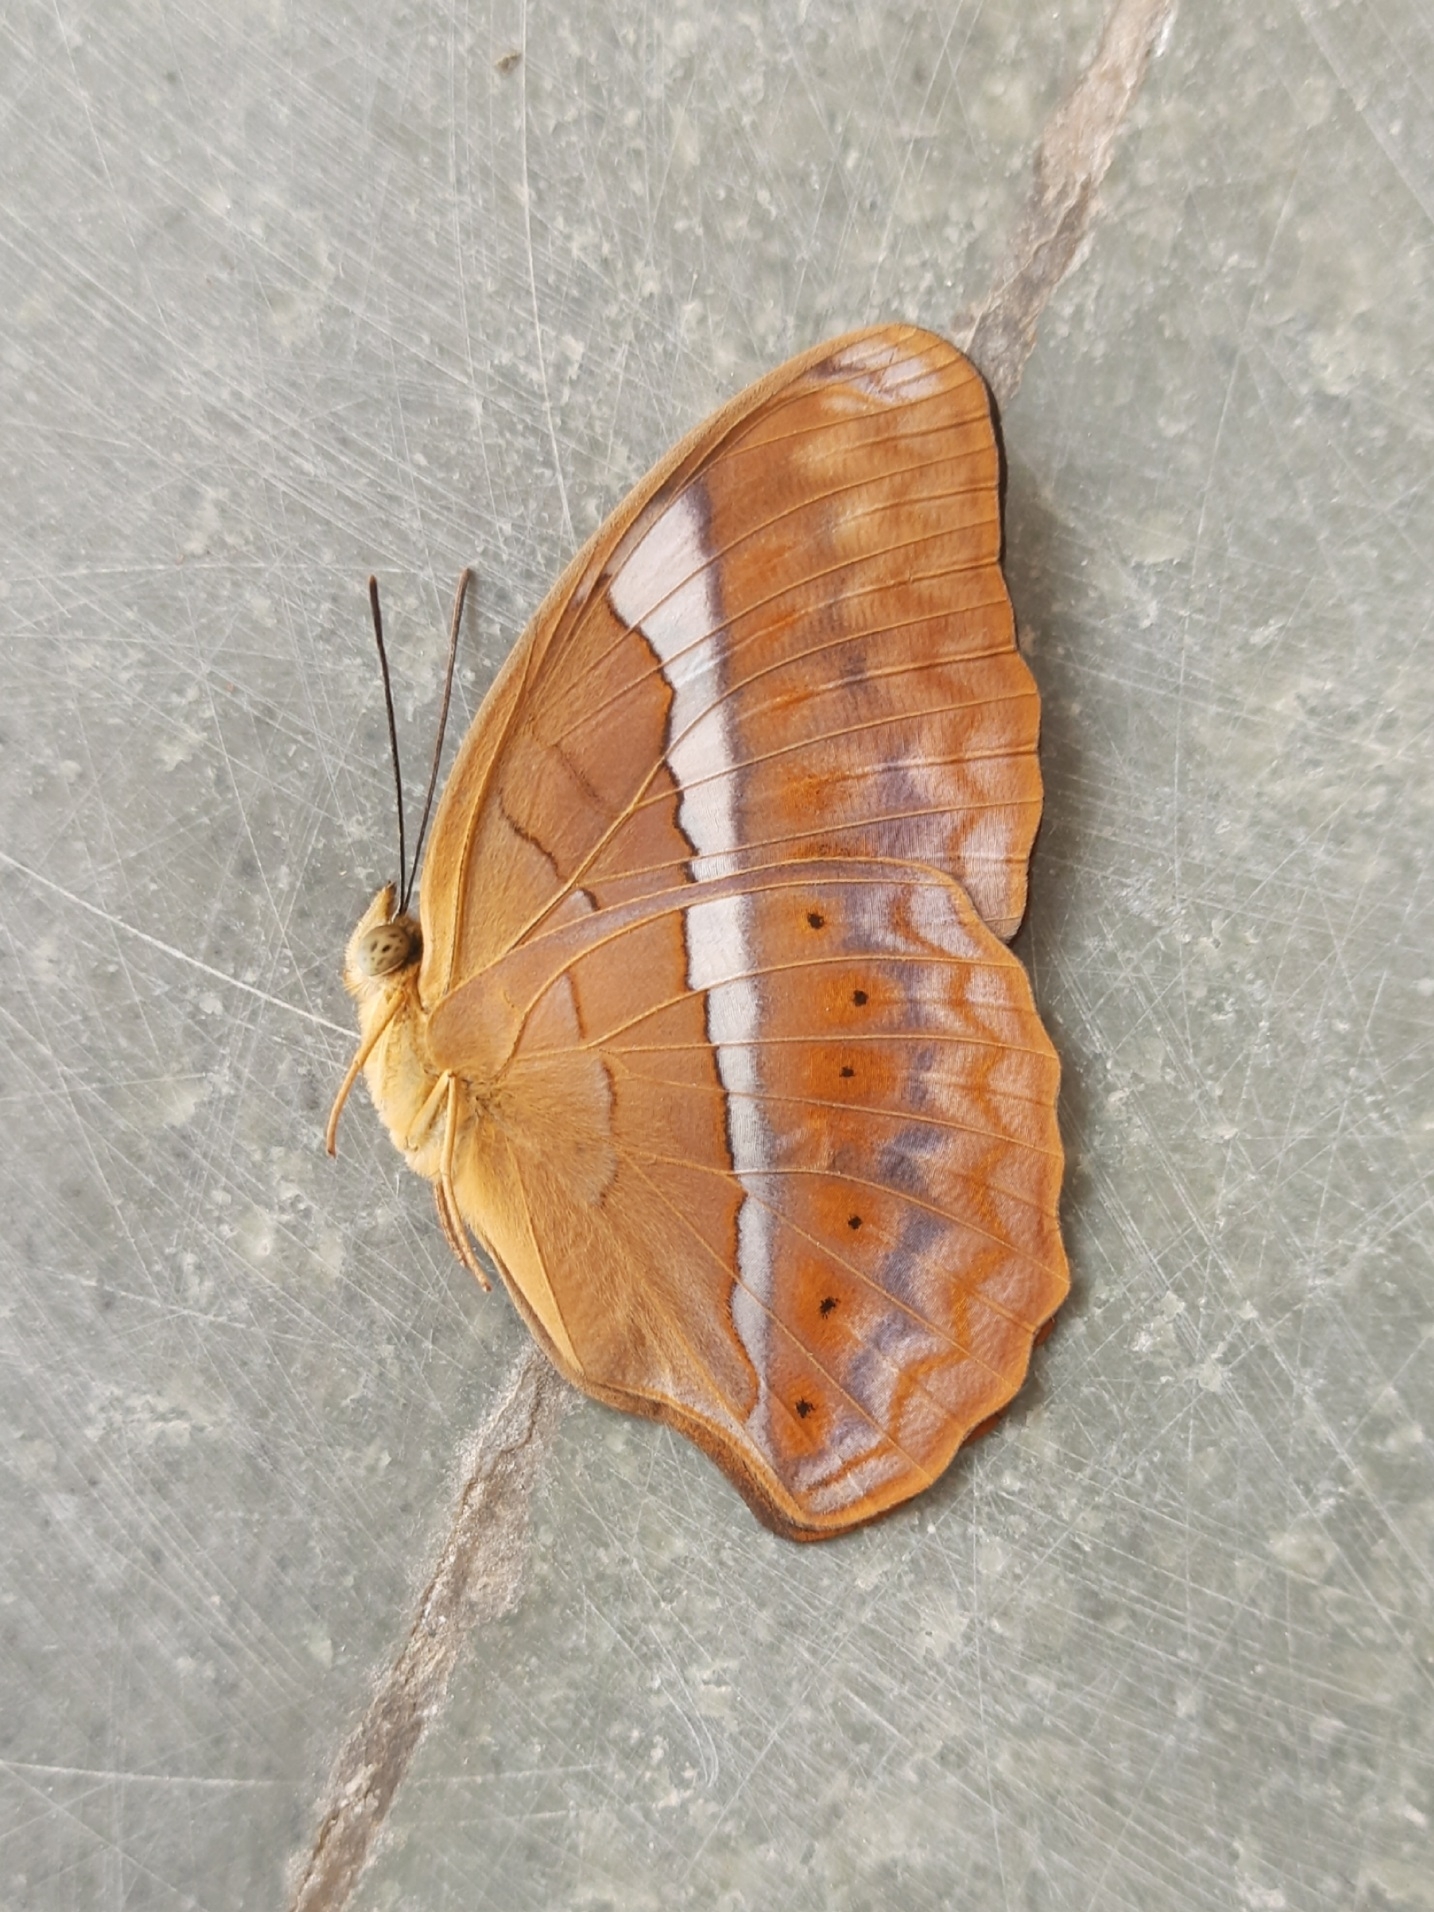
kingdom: Animalia
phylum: Arthropoda
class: Insecta
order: Lepidoptera
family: Nymphalidae
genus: Cirrochroa
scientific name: Cirrochroa thais
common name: Tamil yeoman
